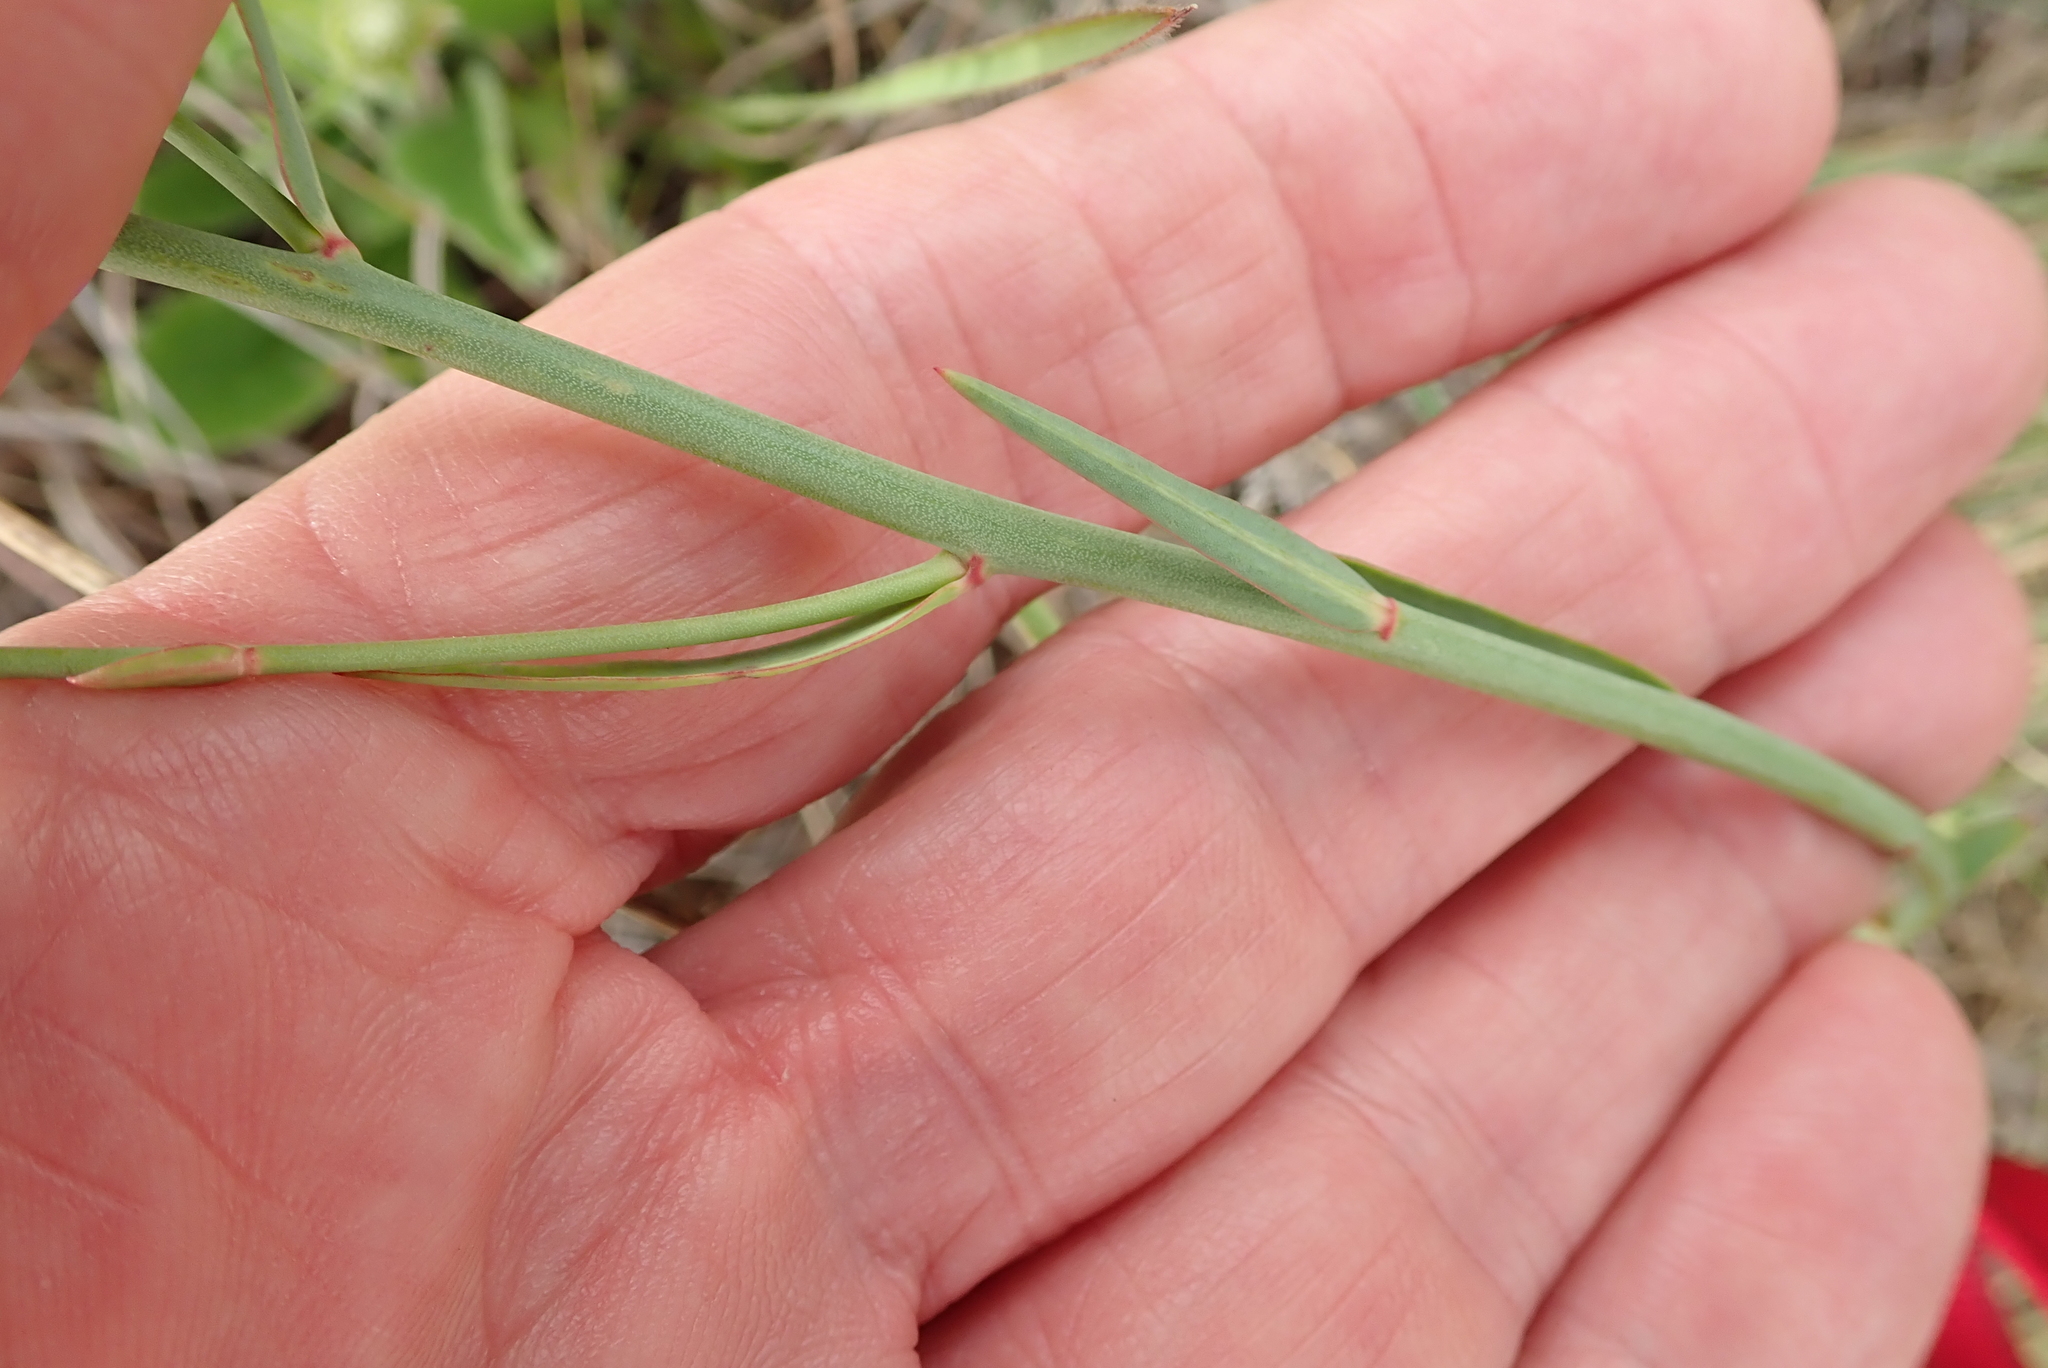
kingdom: Plantae
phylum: Tracheophyta
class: Magnoliopsida
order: Malpighiales
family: Euphorbiaceae
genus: Euphorbia
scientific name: Euphorbia striata
